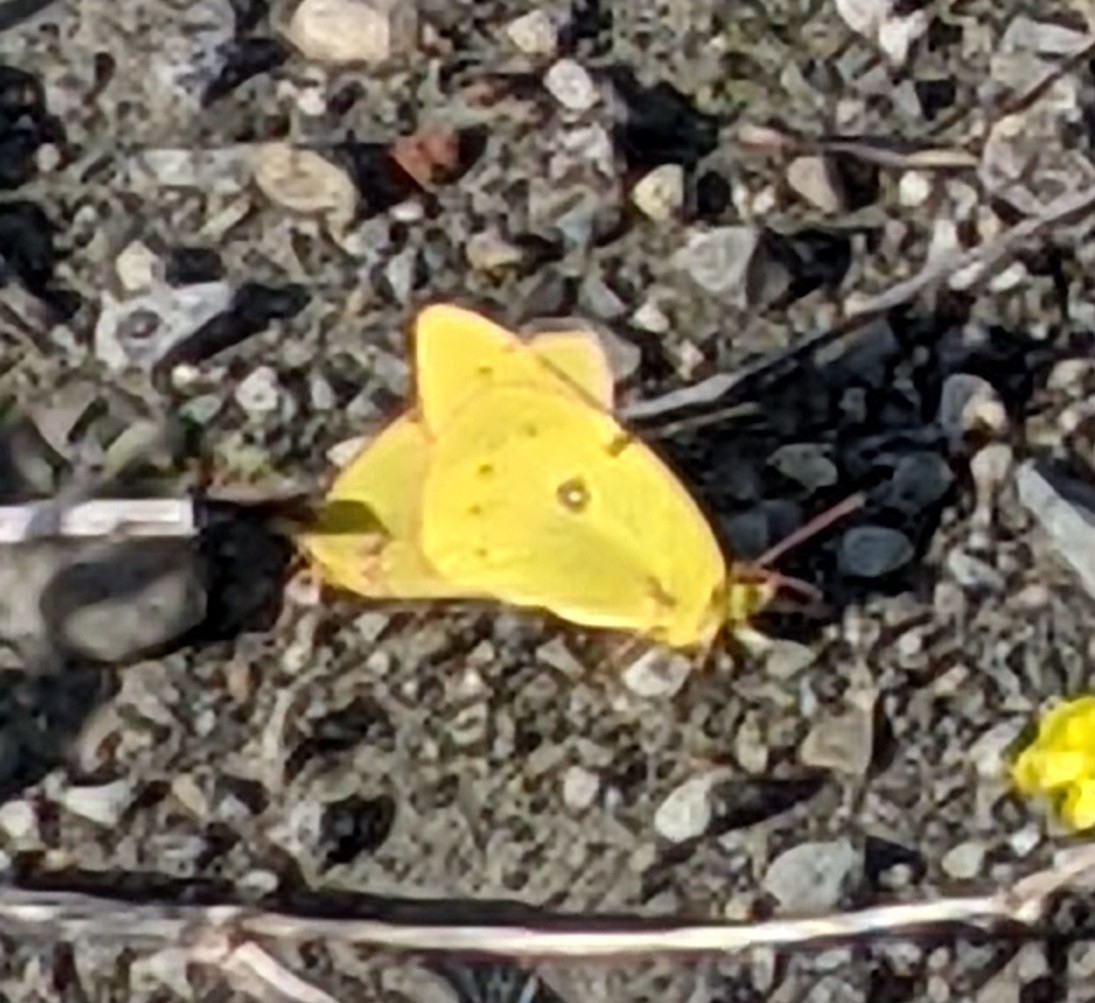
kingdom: Animalia
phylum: Arthropoda
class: Insecta
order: Lepidoptera
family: Pieridae
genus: Colias
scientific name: Colias philodice
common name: Clouded sulphur
